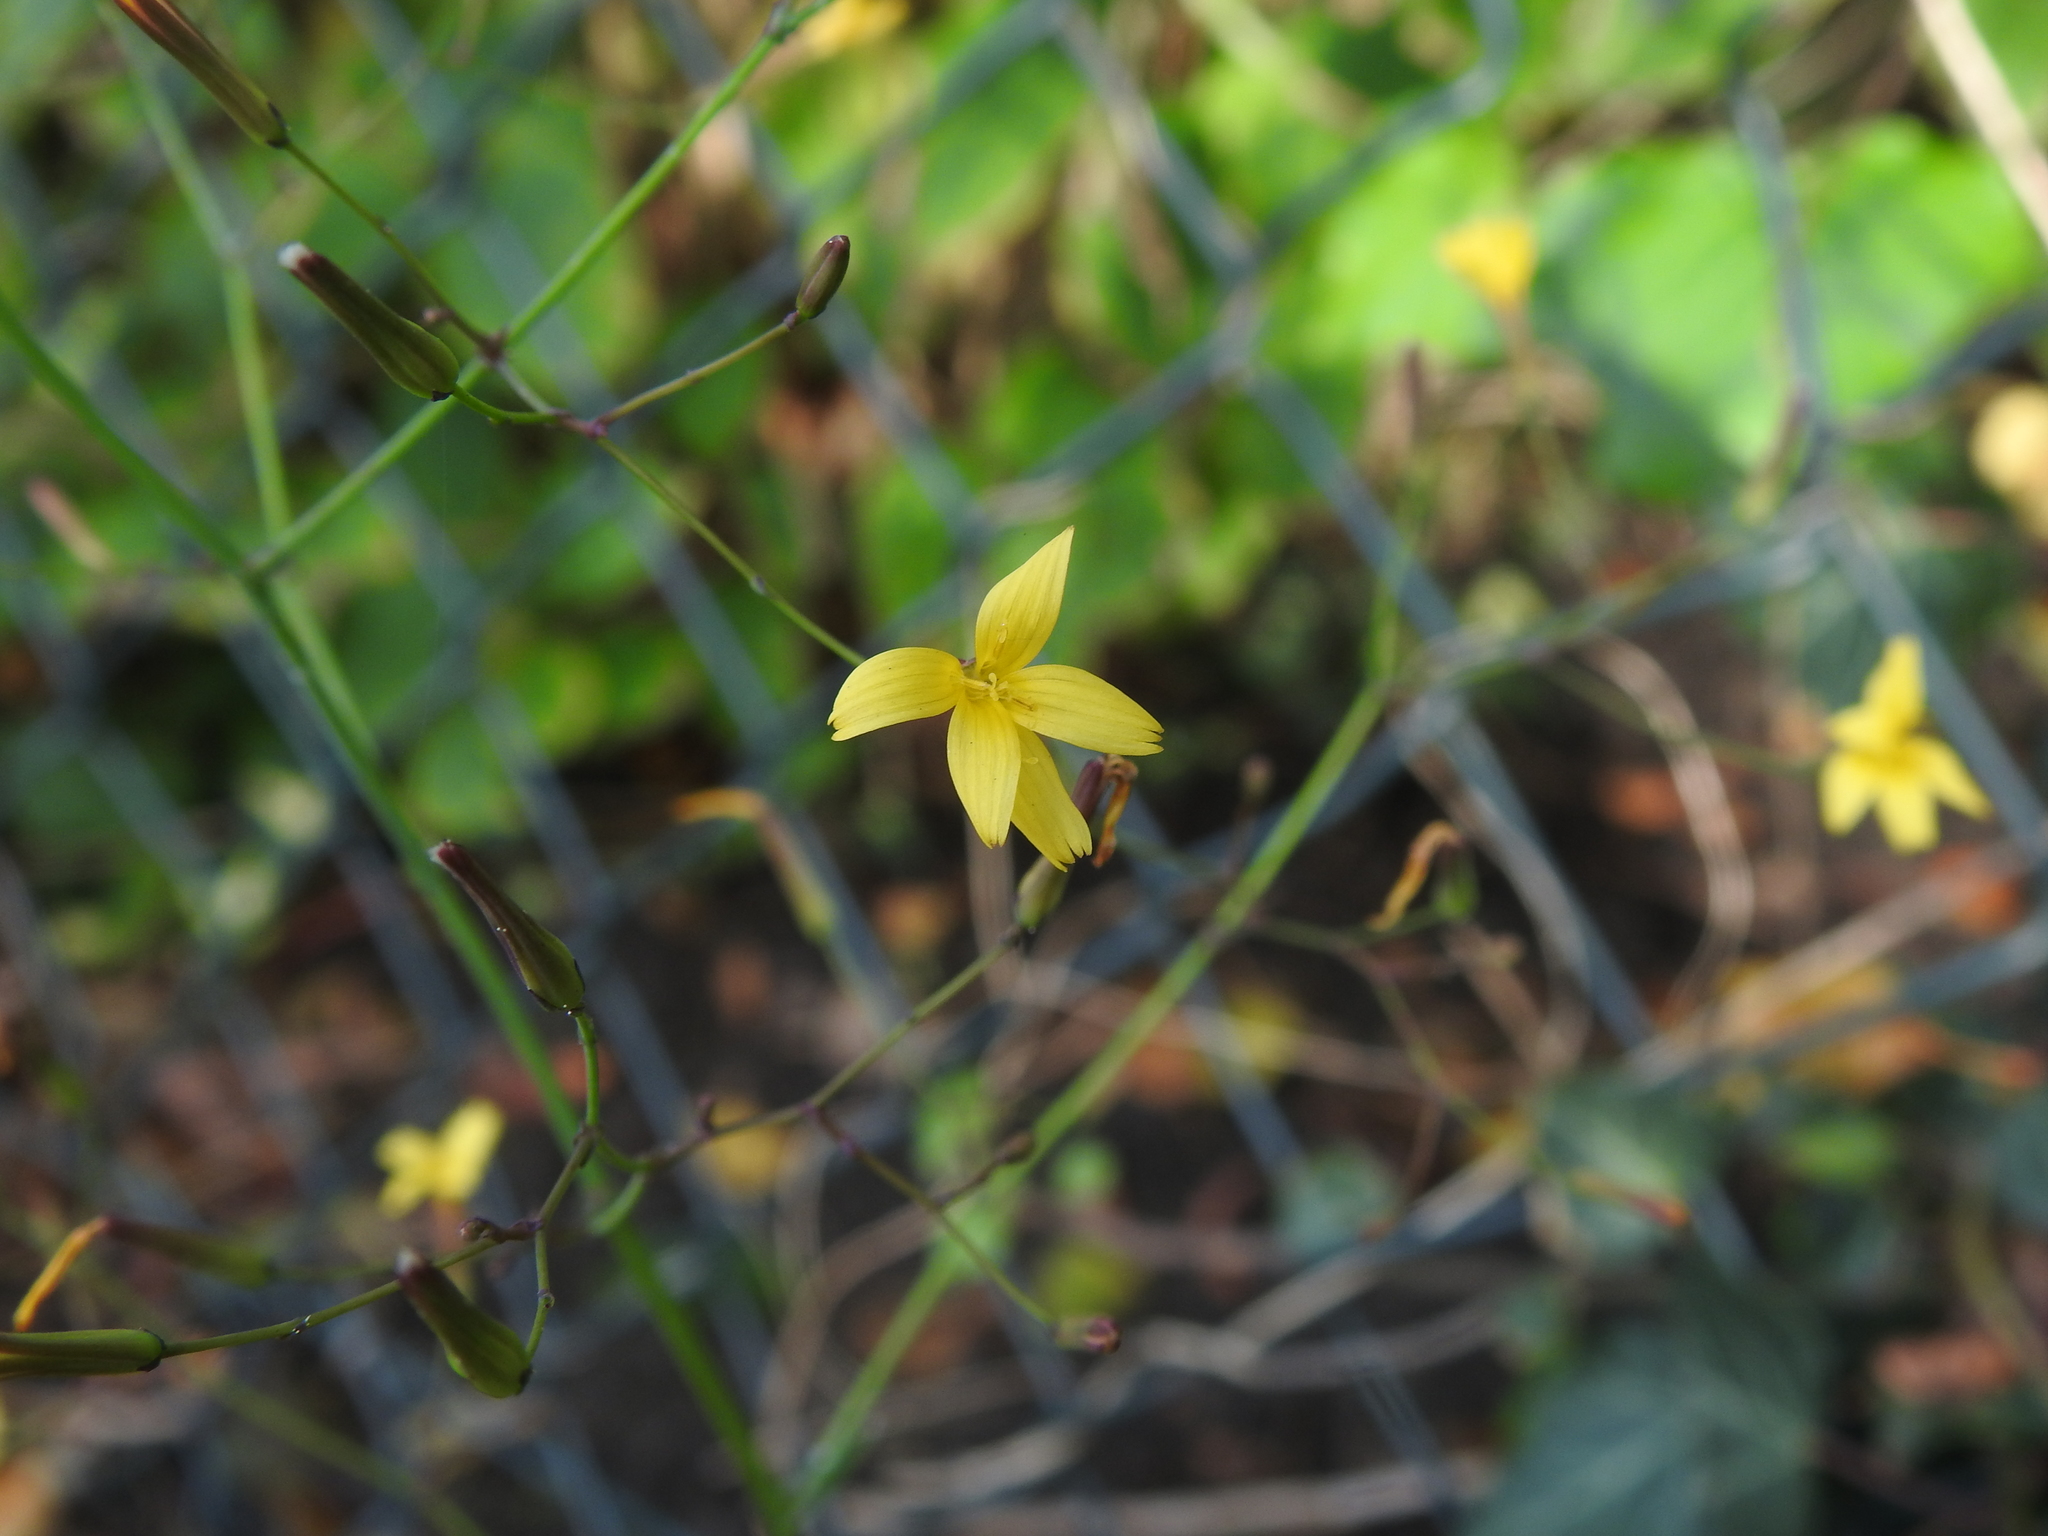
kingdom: Plantae
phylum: Tracheophyta
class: Magnoliopsida
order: Asterales
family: Asteraceae
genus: Mycelis
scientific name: Mycelis muralis
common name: Wall lettuce
